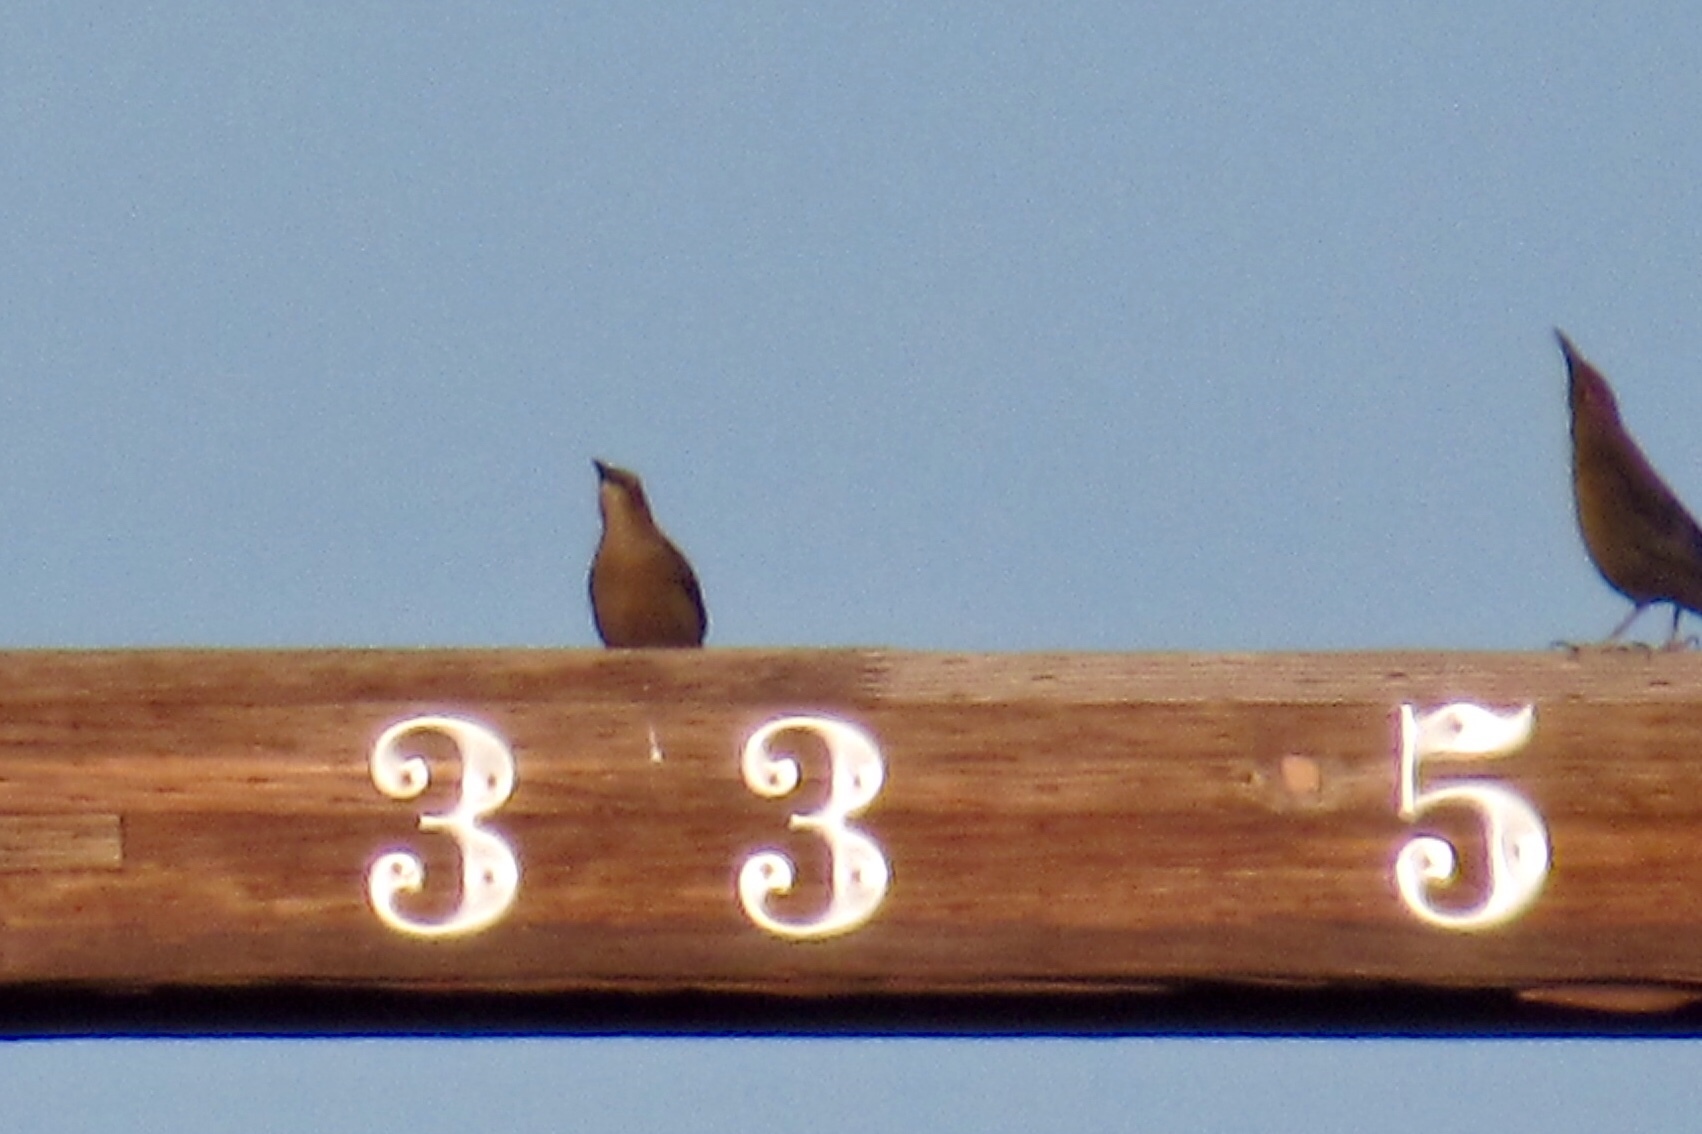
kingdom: Animalia
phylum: Chordata
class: Aves
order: Passeriformes
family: Icteridae
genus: Quiscalus
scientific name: Quiscalus mexicanus
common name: Great-tailed grackle
